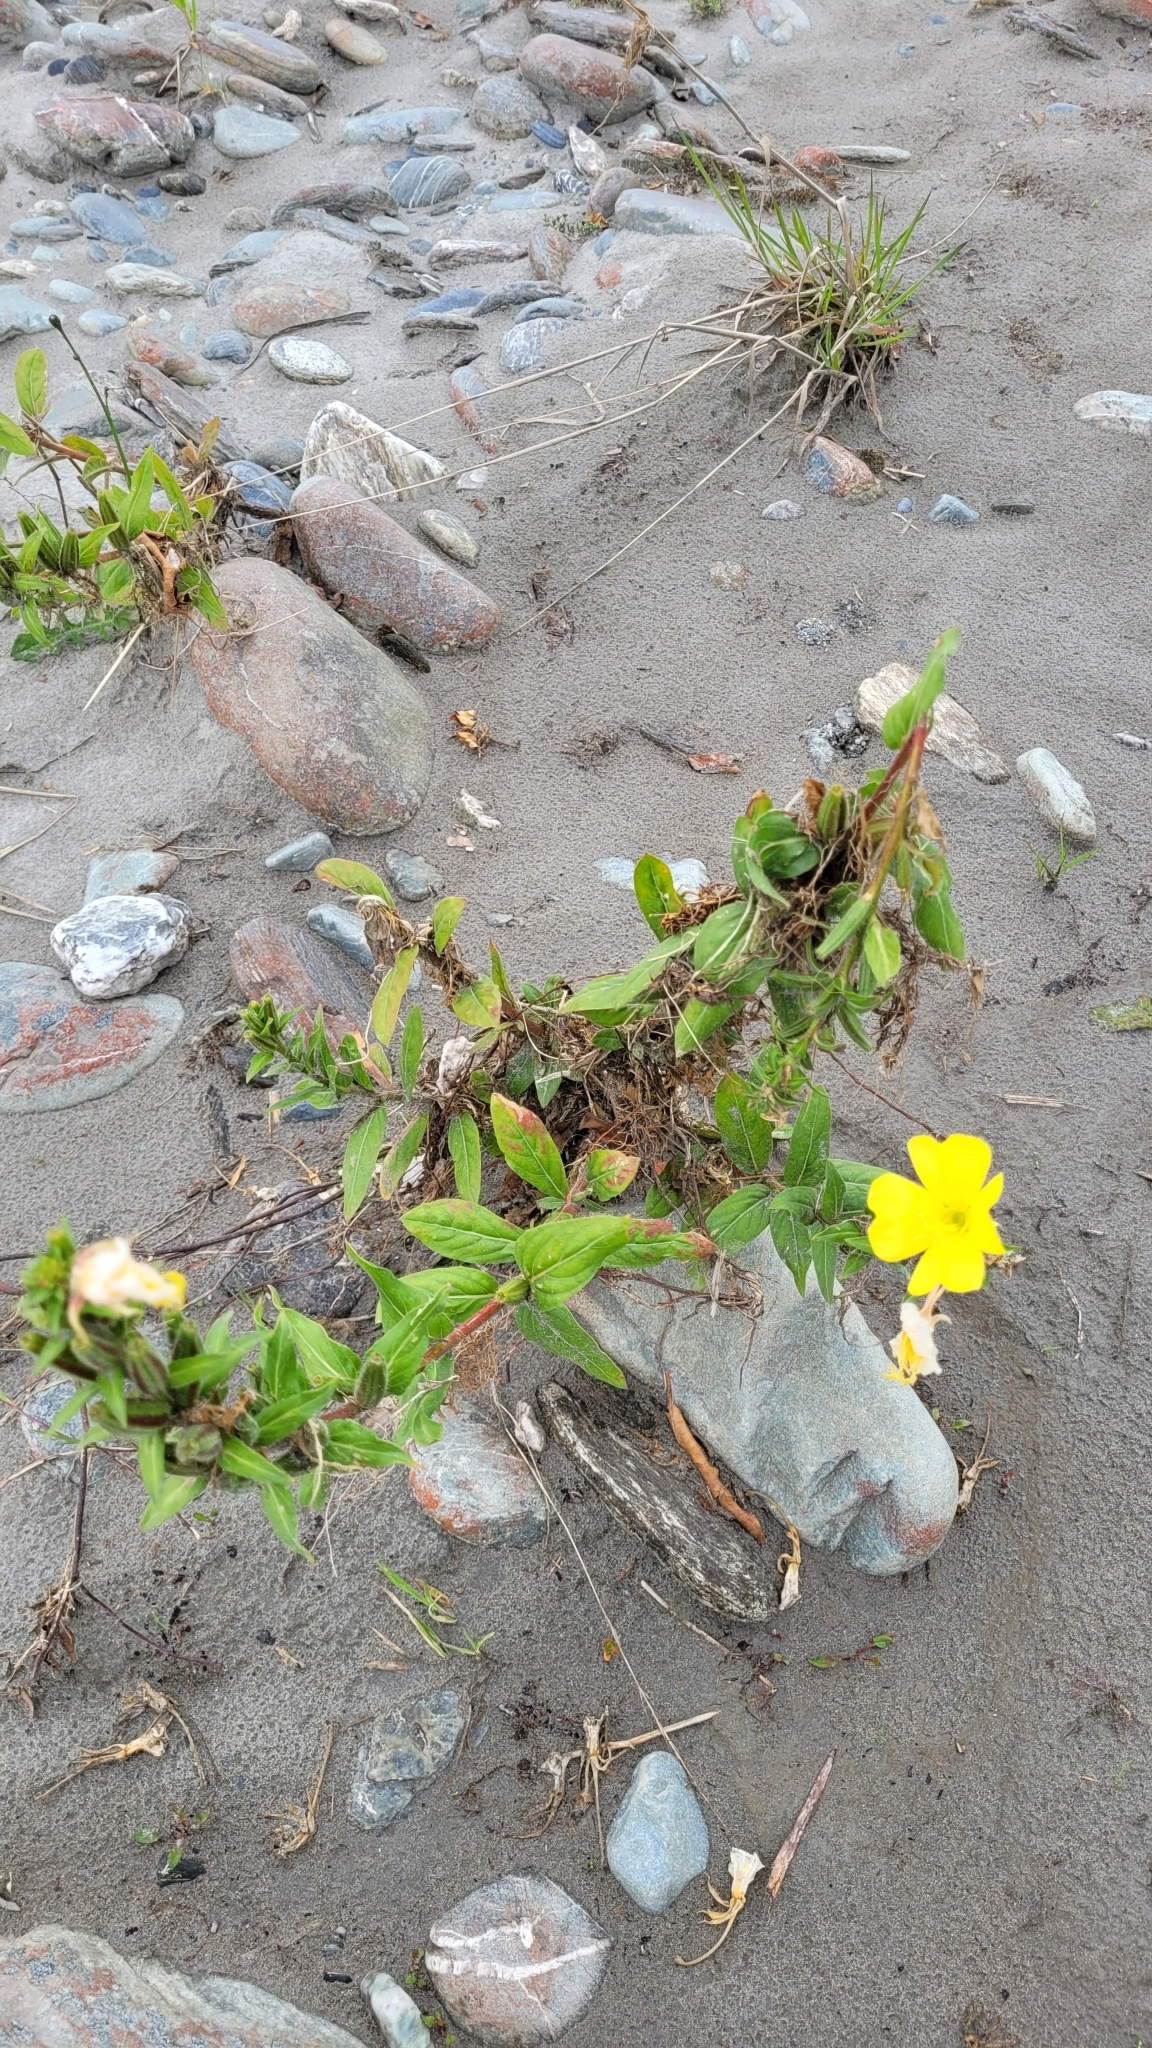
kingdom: Plantae
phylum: Tracheophyta
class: Magnoliopsida
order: Myrtales
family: Onagraceae
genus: Oenothera
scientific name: Oenothera biennis
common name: Common evening-primrose
